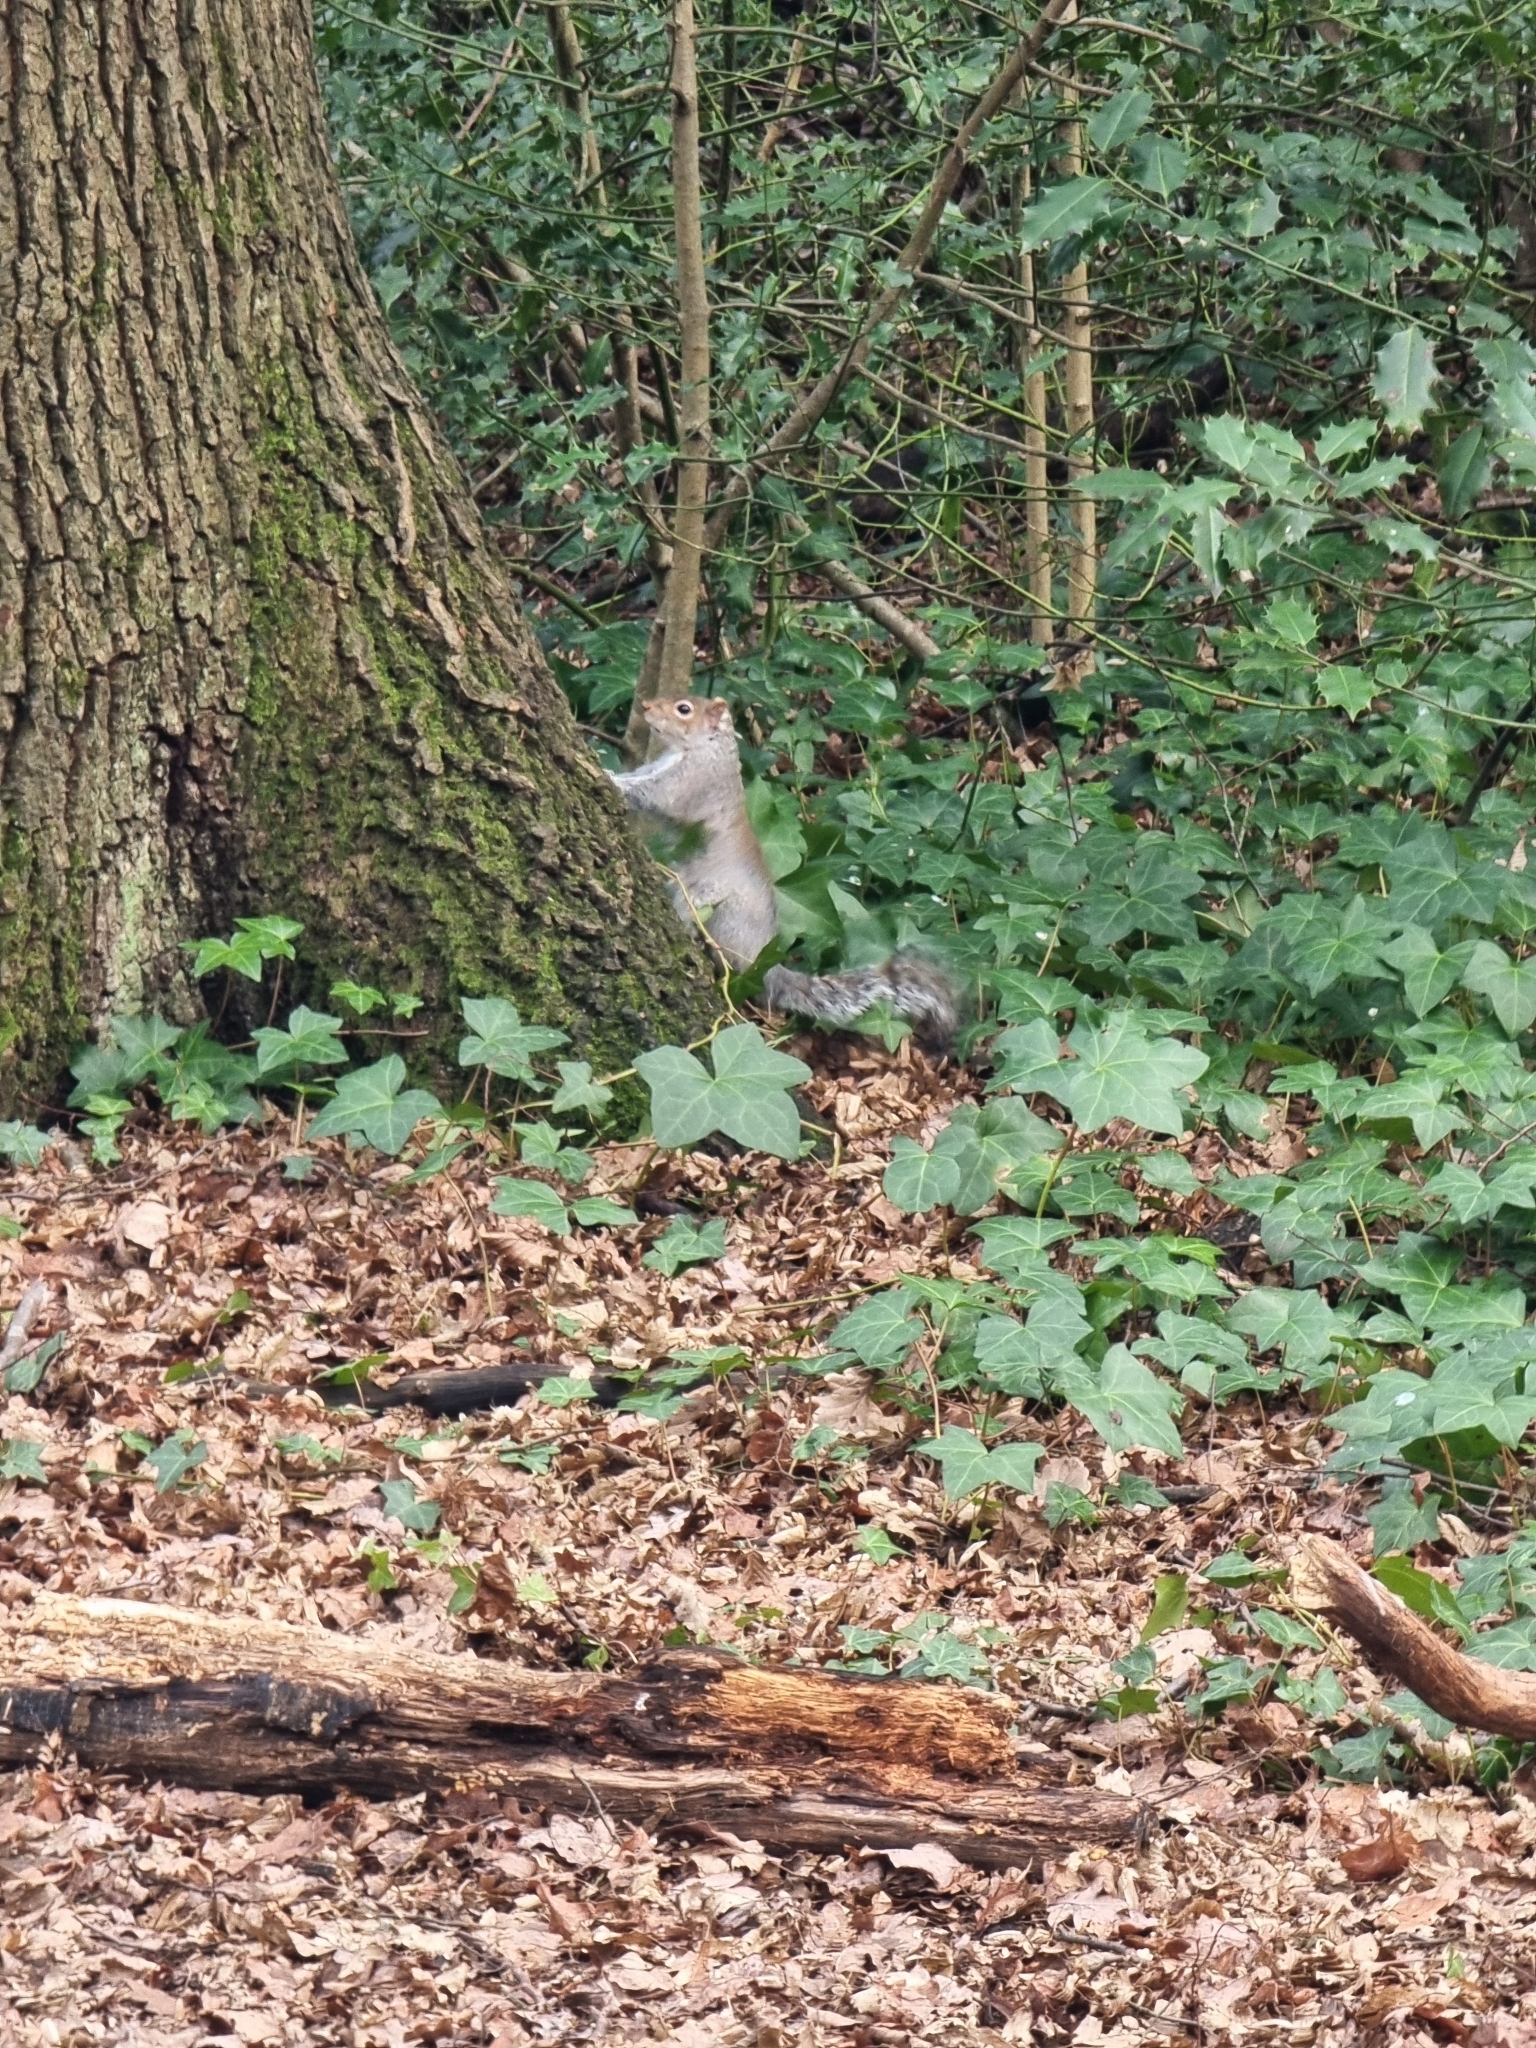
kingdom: Animalia
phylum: Chordata
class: Mammalia
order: Rodentia
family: Sciuridae
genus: Sciurus
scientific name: Sciurus carolinensis
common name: Eastern gray squirrel
